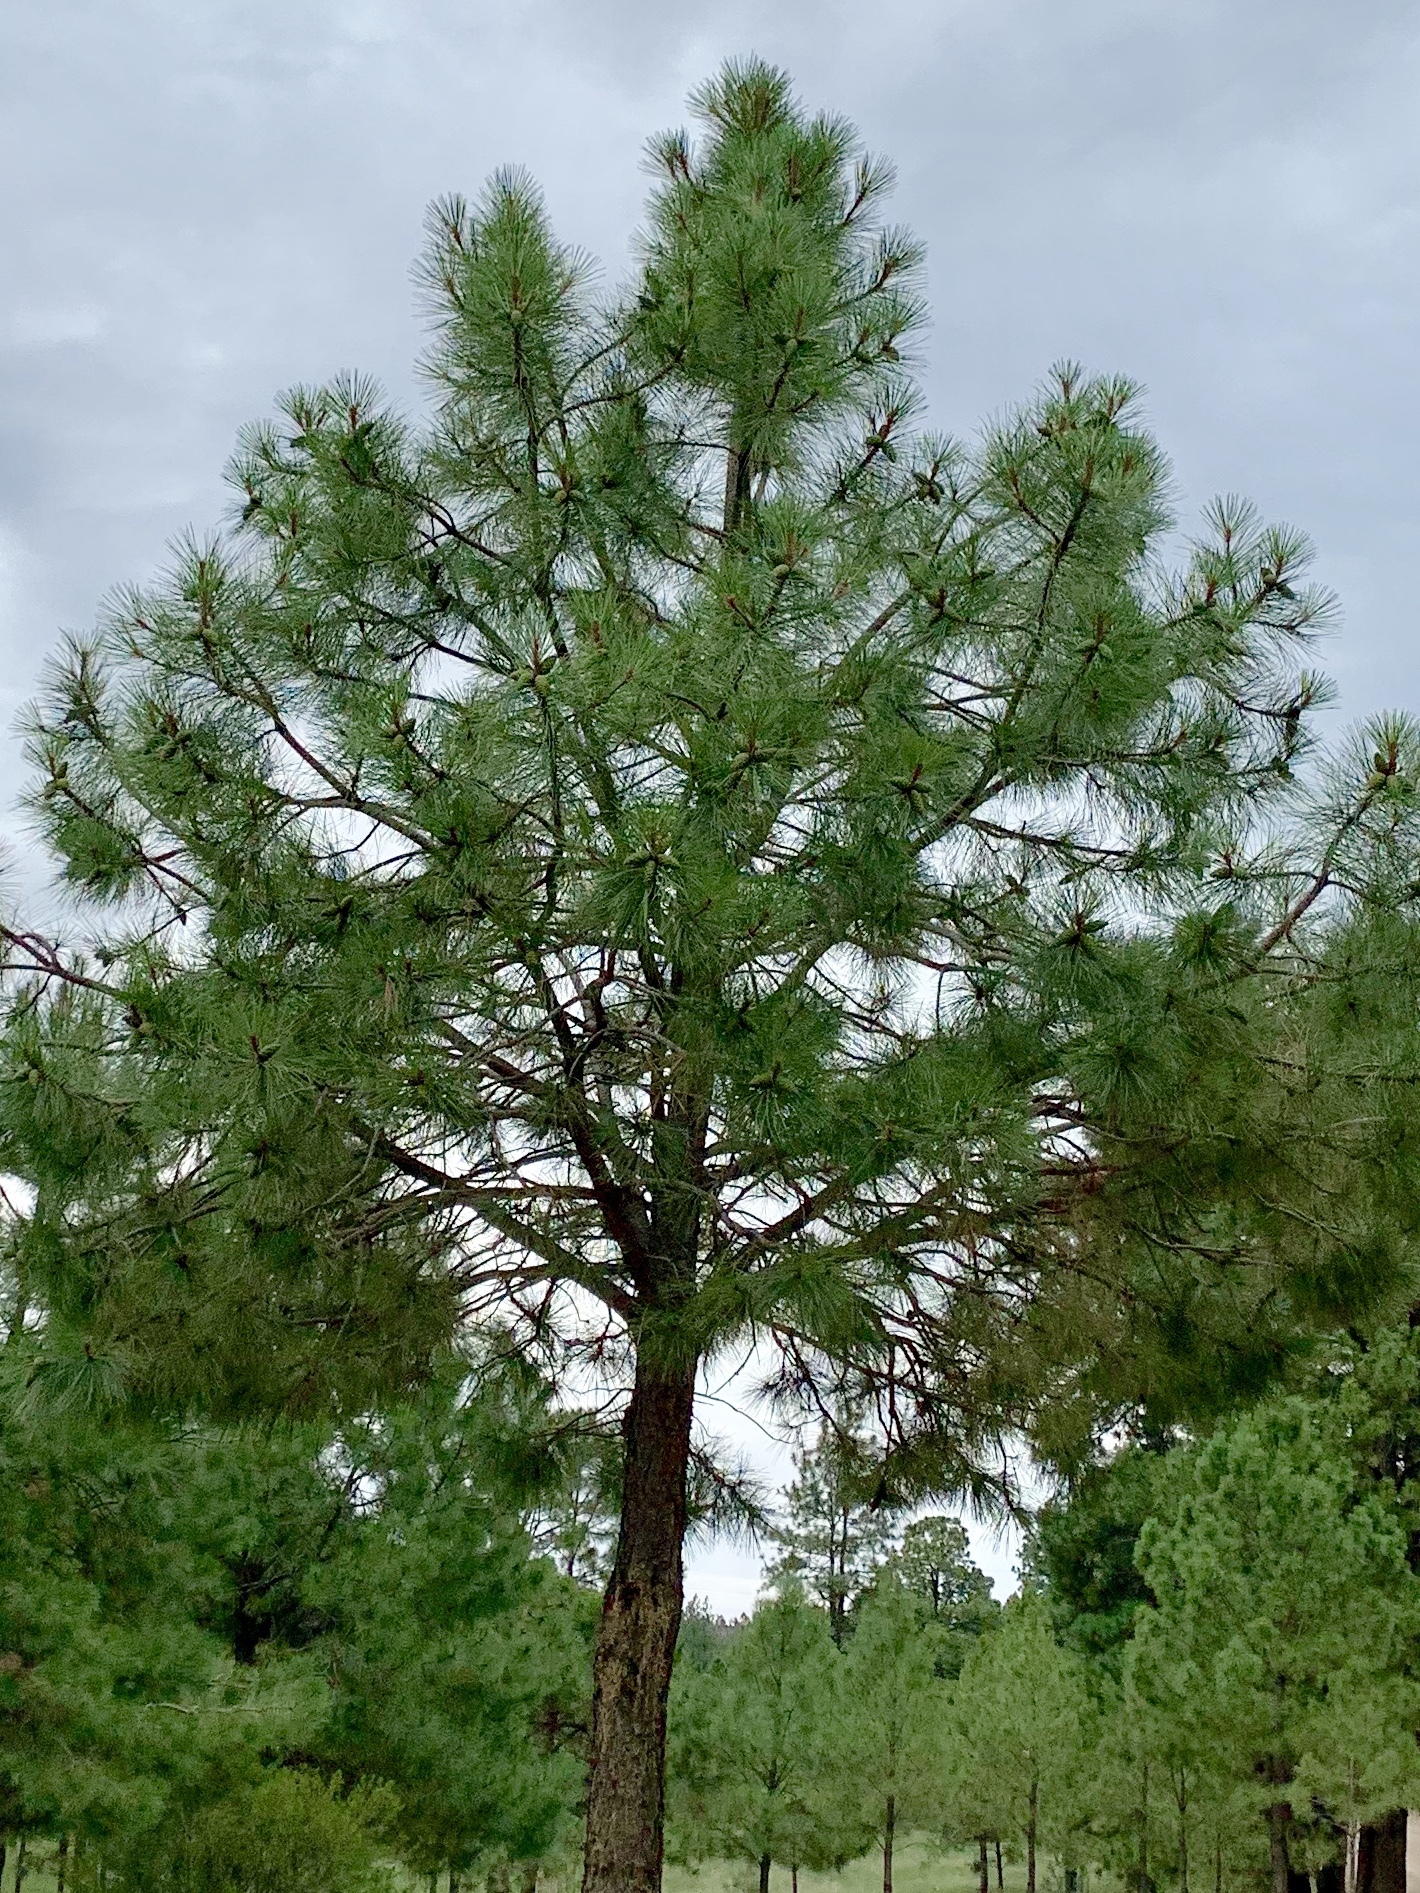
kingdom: Plantae
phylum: Tracheophyta
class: Pinopsida
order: Pinales
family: Pinaceae
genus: Pinus
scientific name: Pinus ponderosa
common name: Western yellow-pine
